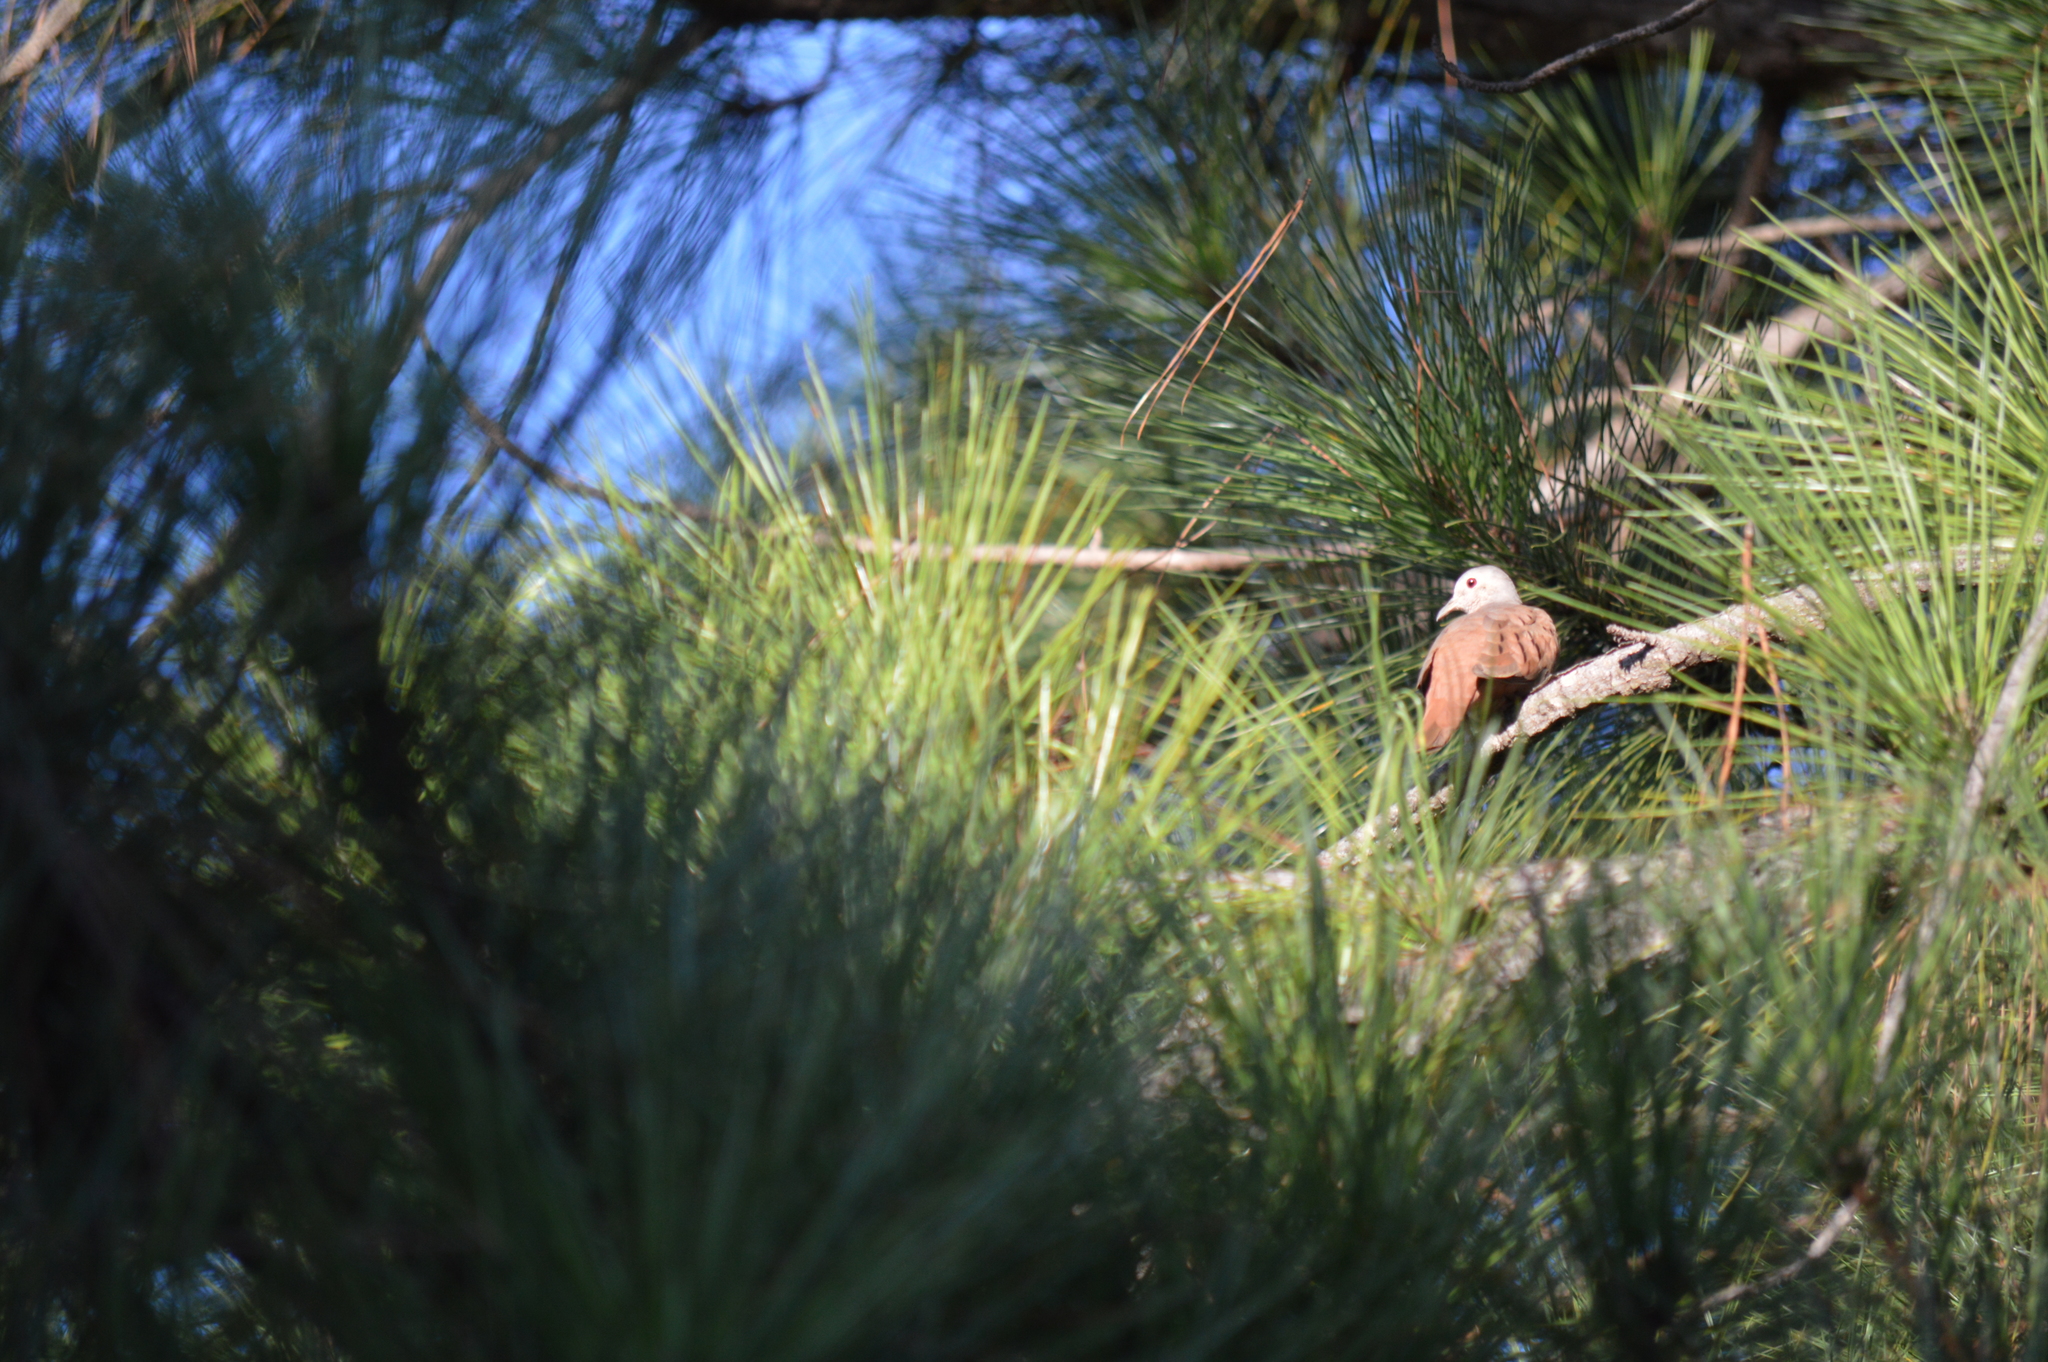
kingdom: Animalia
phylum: Chordata
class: Aves
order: Columbiformes
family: Columbidae
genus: Columbina
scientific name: Columbina talpacoti
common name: Ruddy ground dove
